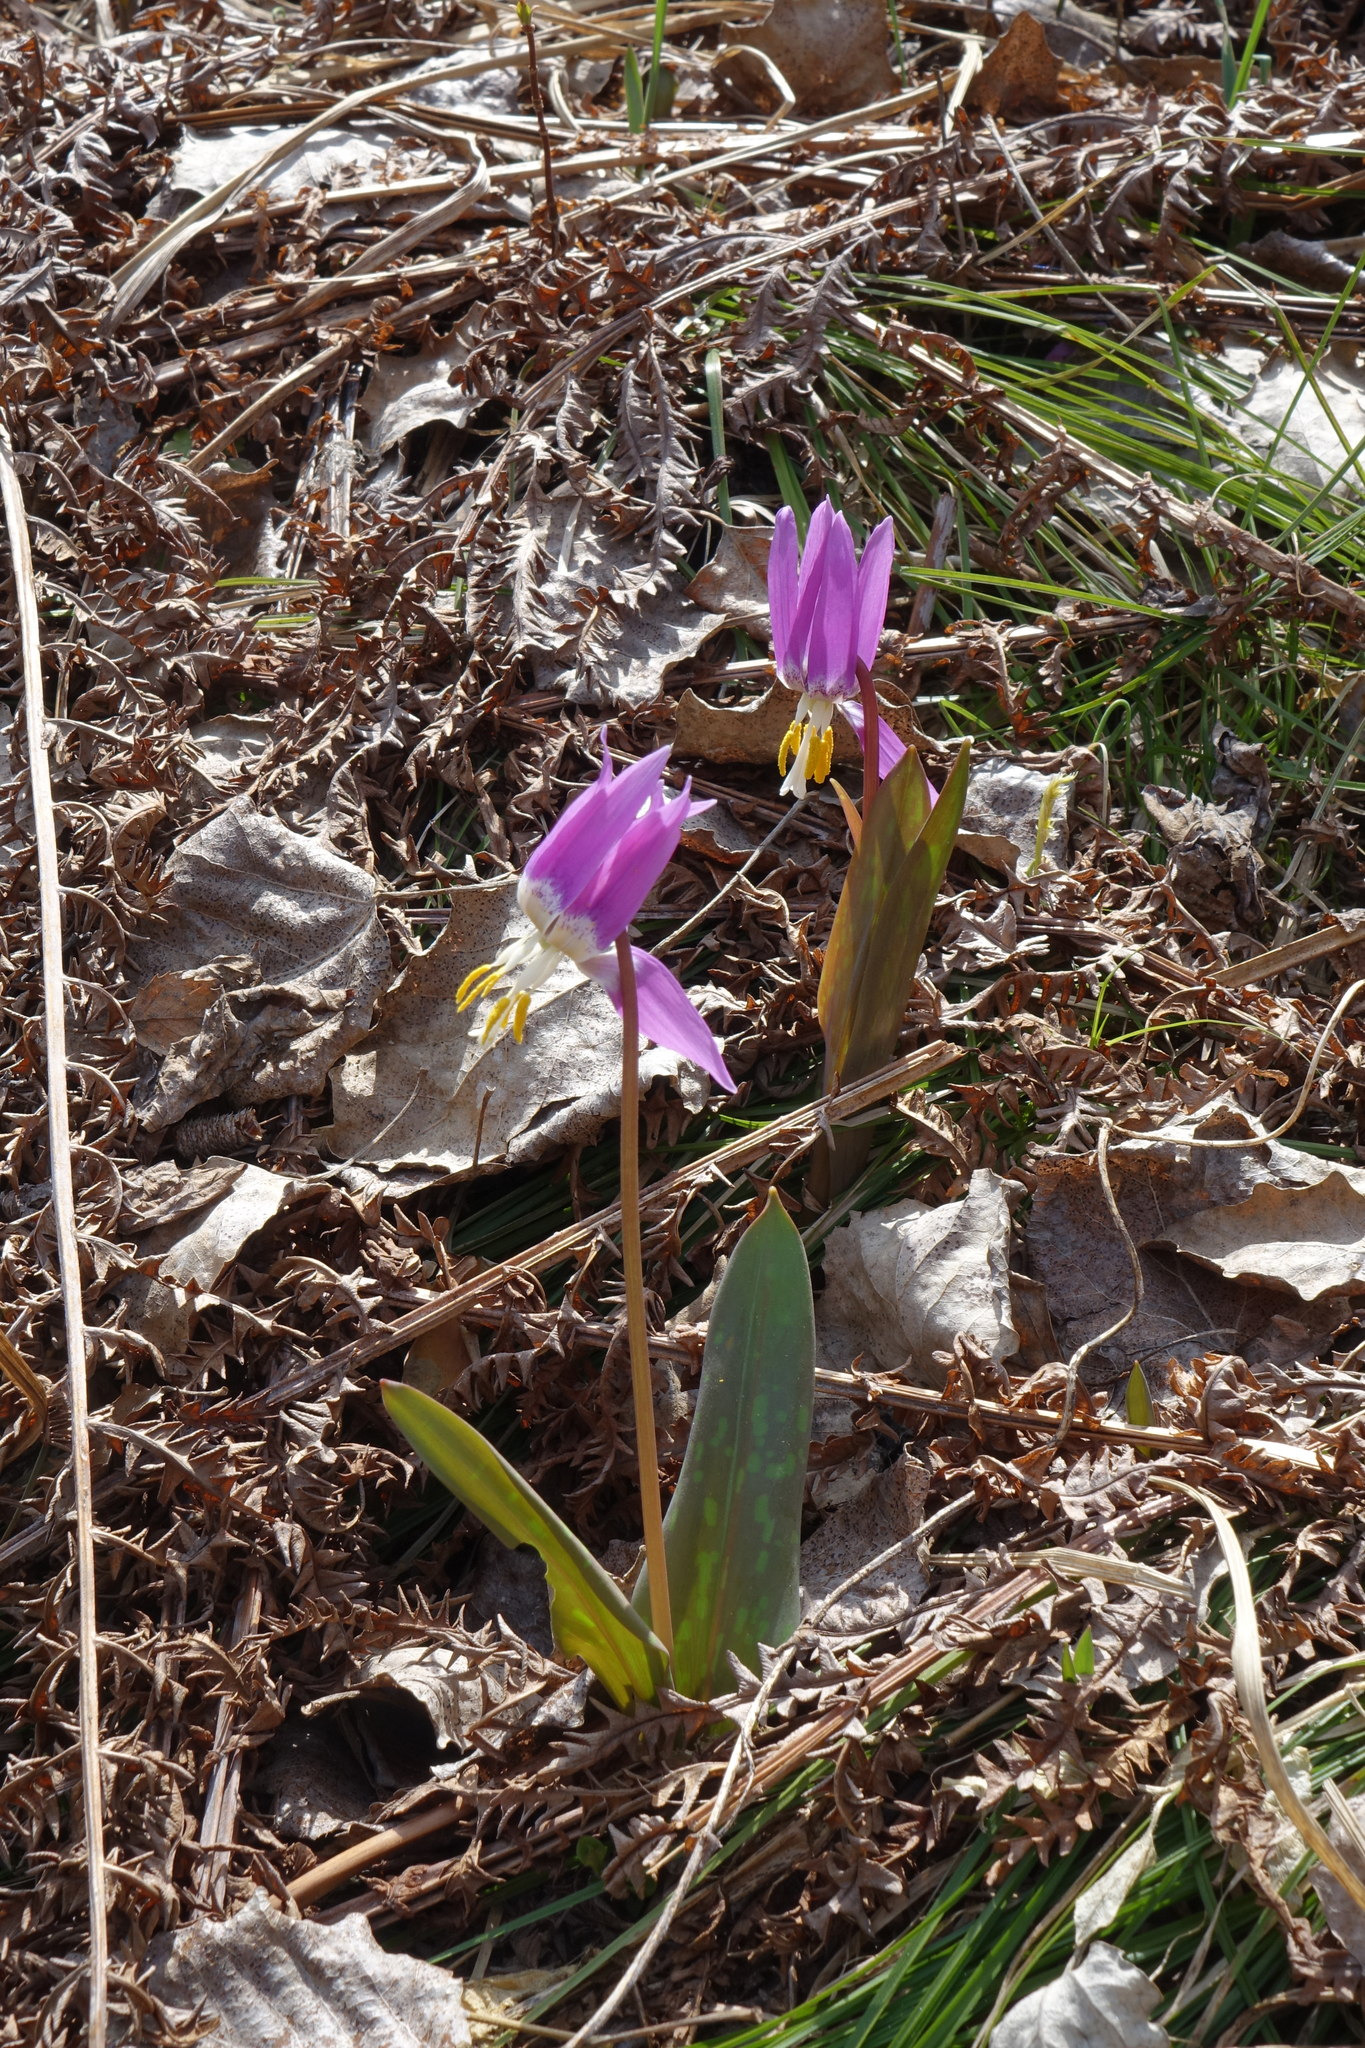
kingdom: Plantae
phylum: Tracheophyta
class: Liliopsida
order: Liliales
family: Liliaceae
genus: Erythronium
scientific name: Erythronium sibiricum
